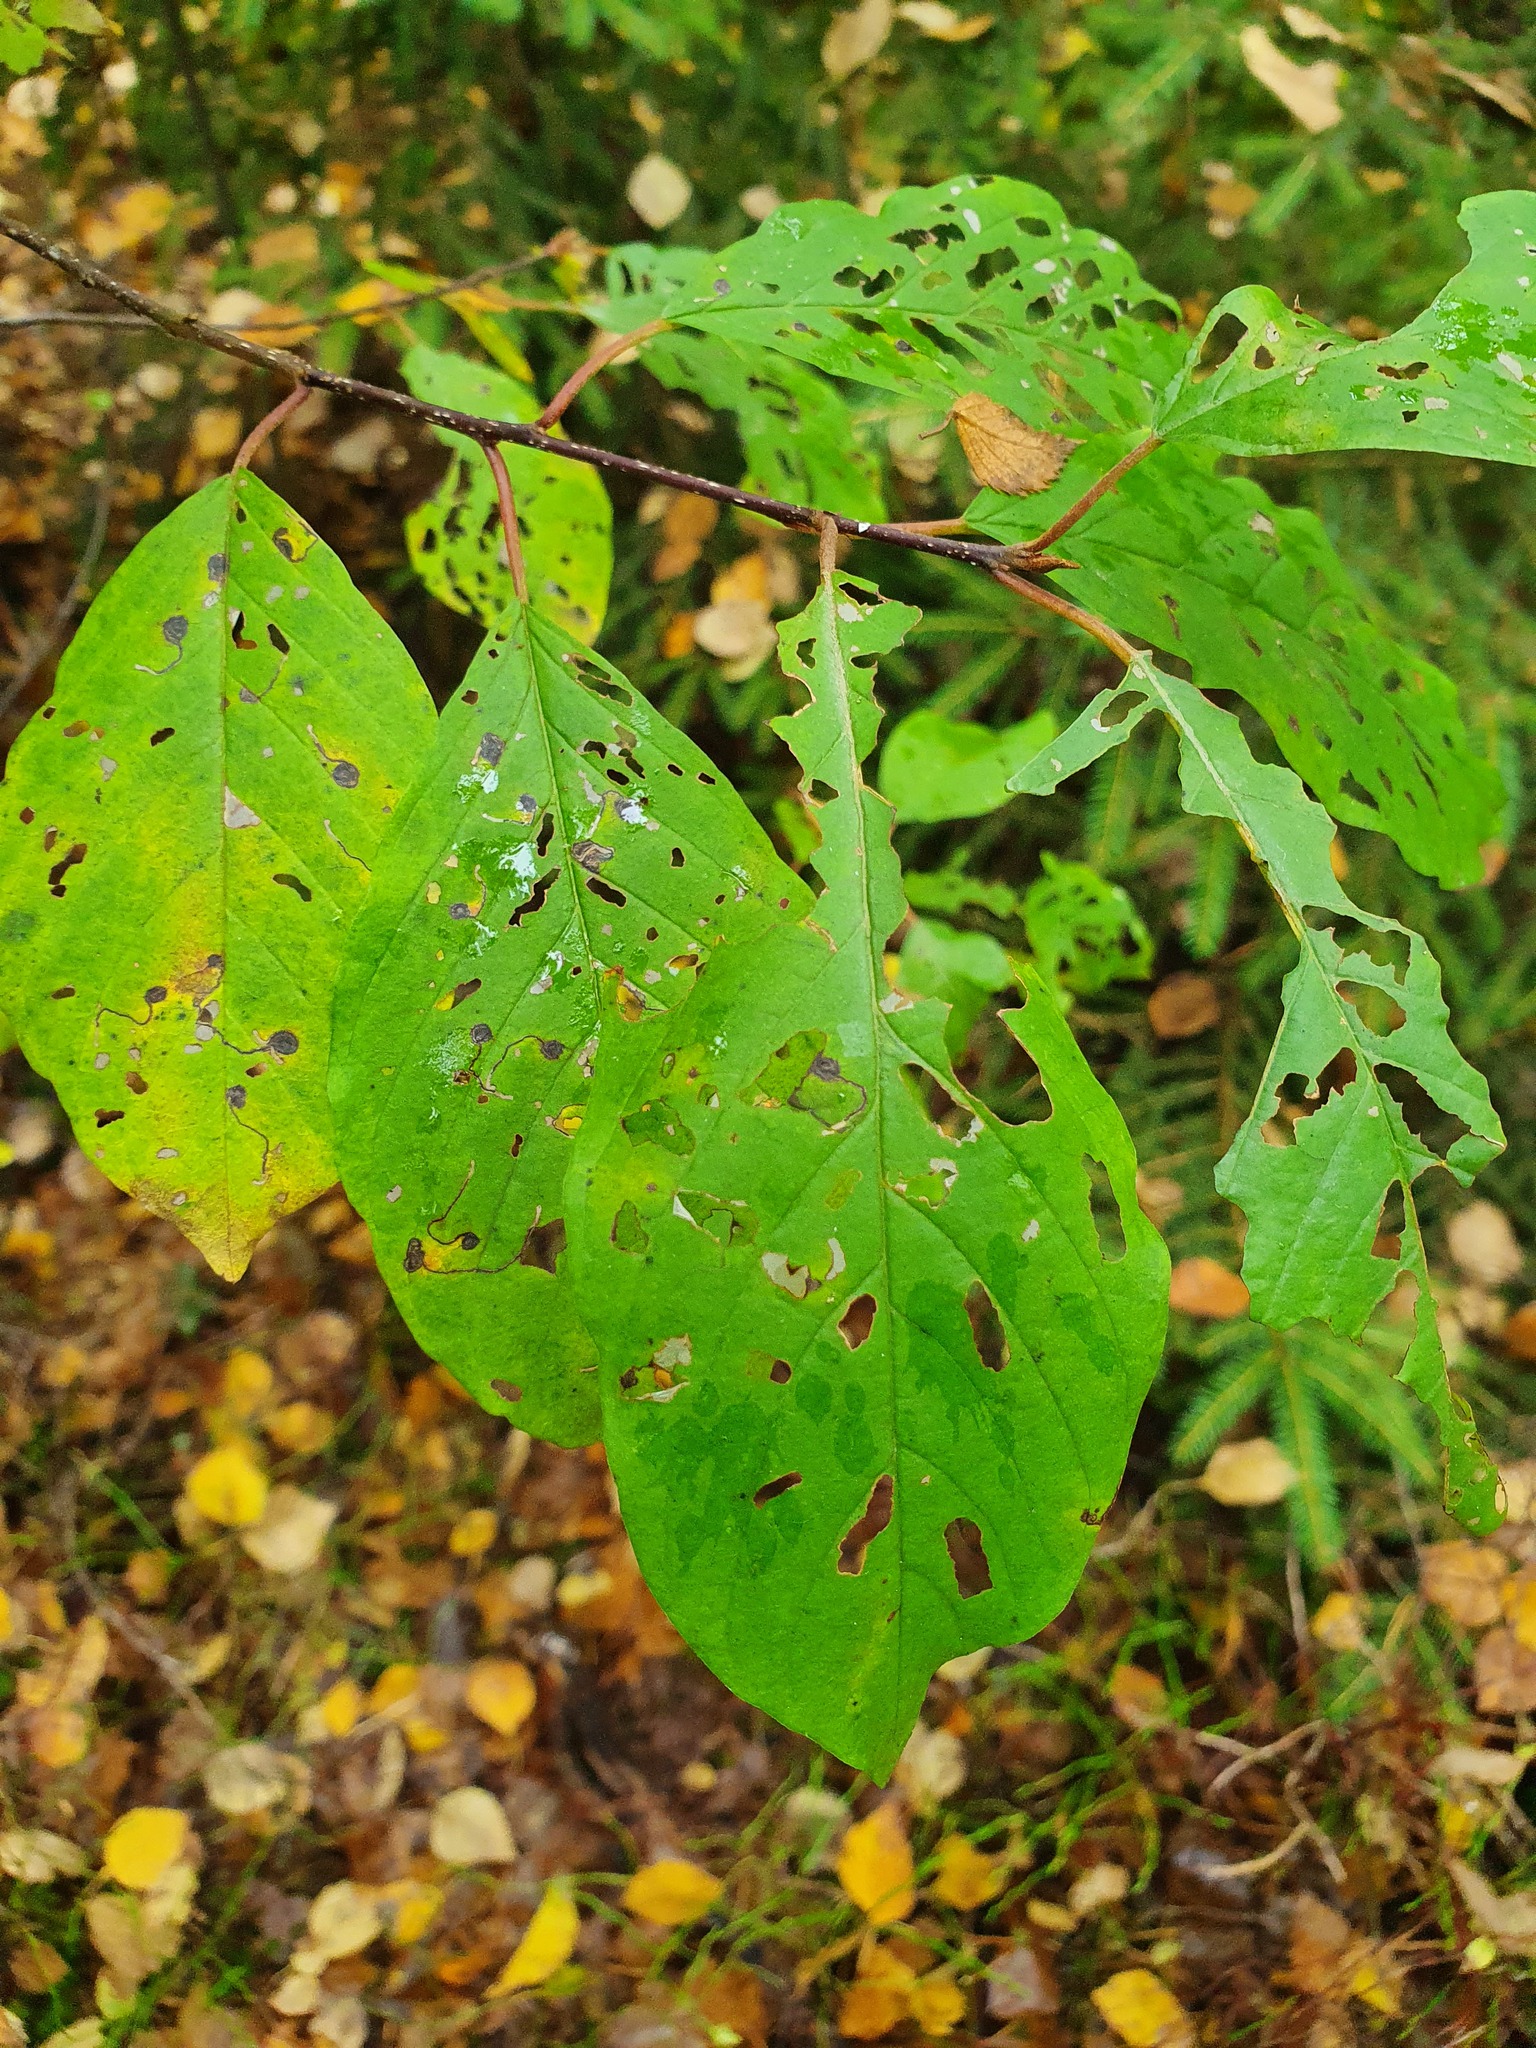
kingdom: Plantae
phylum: Tracheophyta
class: Magnoliopsida
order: Rosales
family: Rhamnaceae
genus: Frangula
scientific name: Frangula alnus
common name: Alder buckthorn
